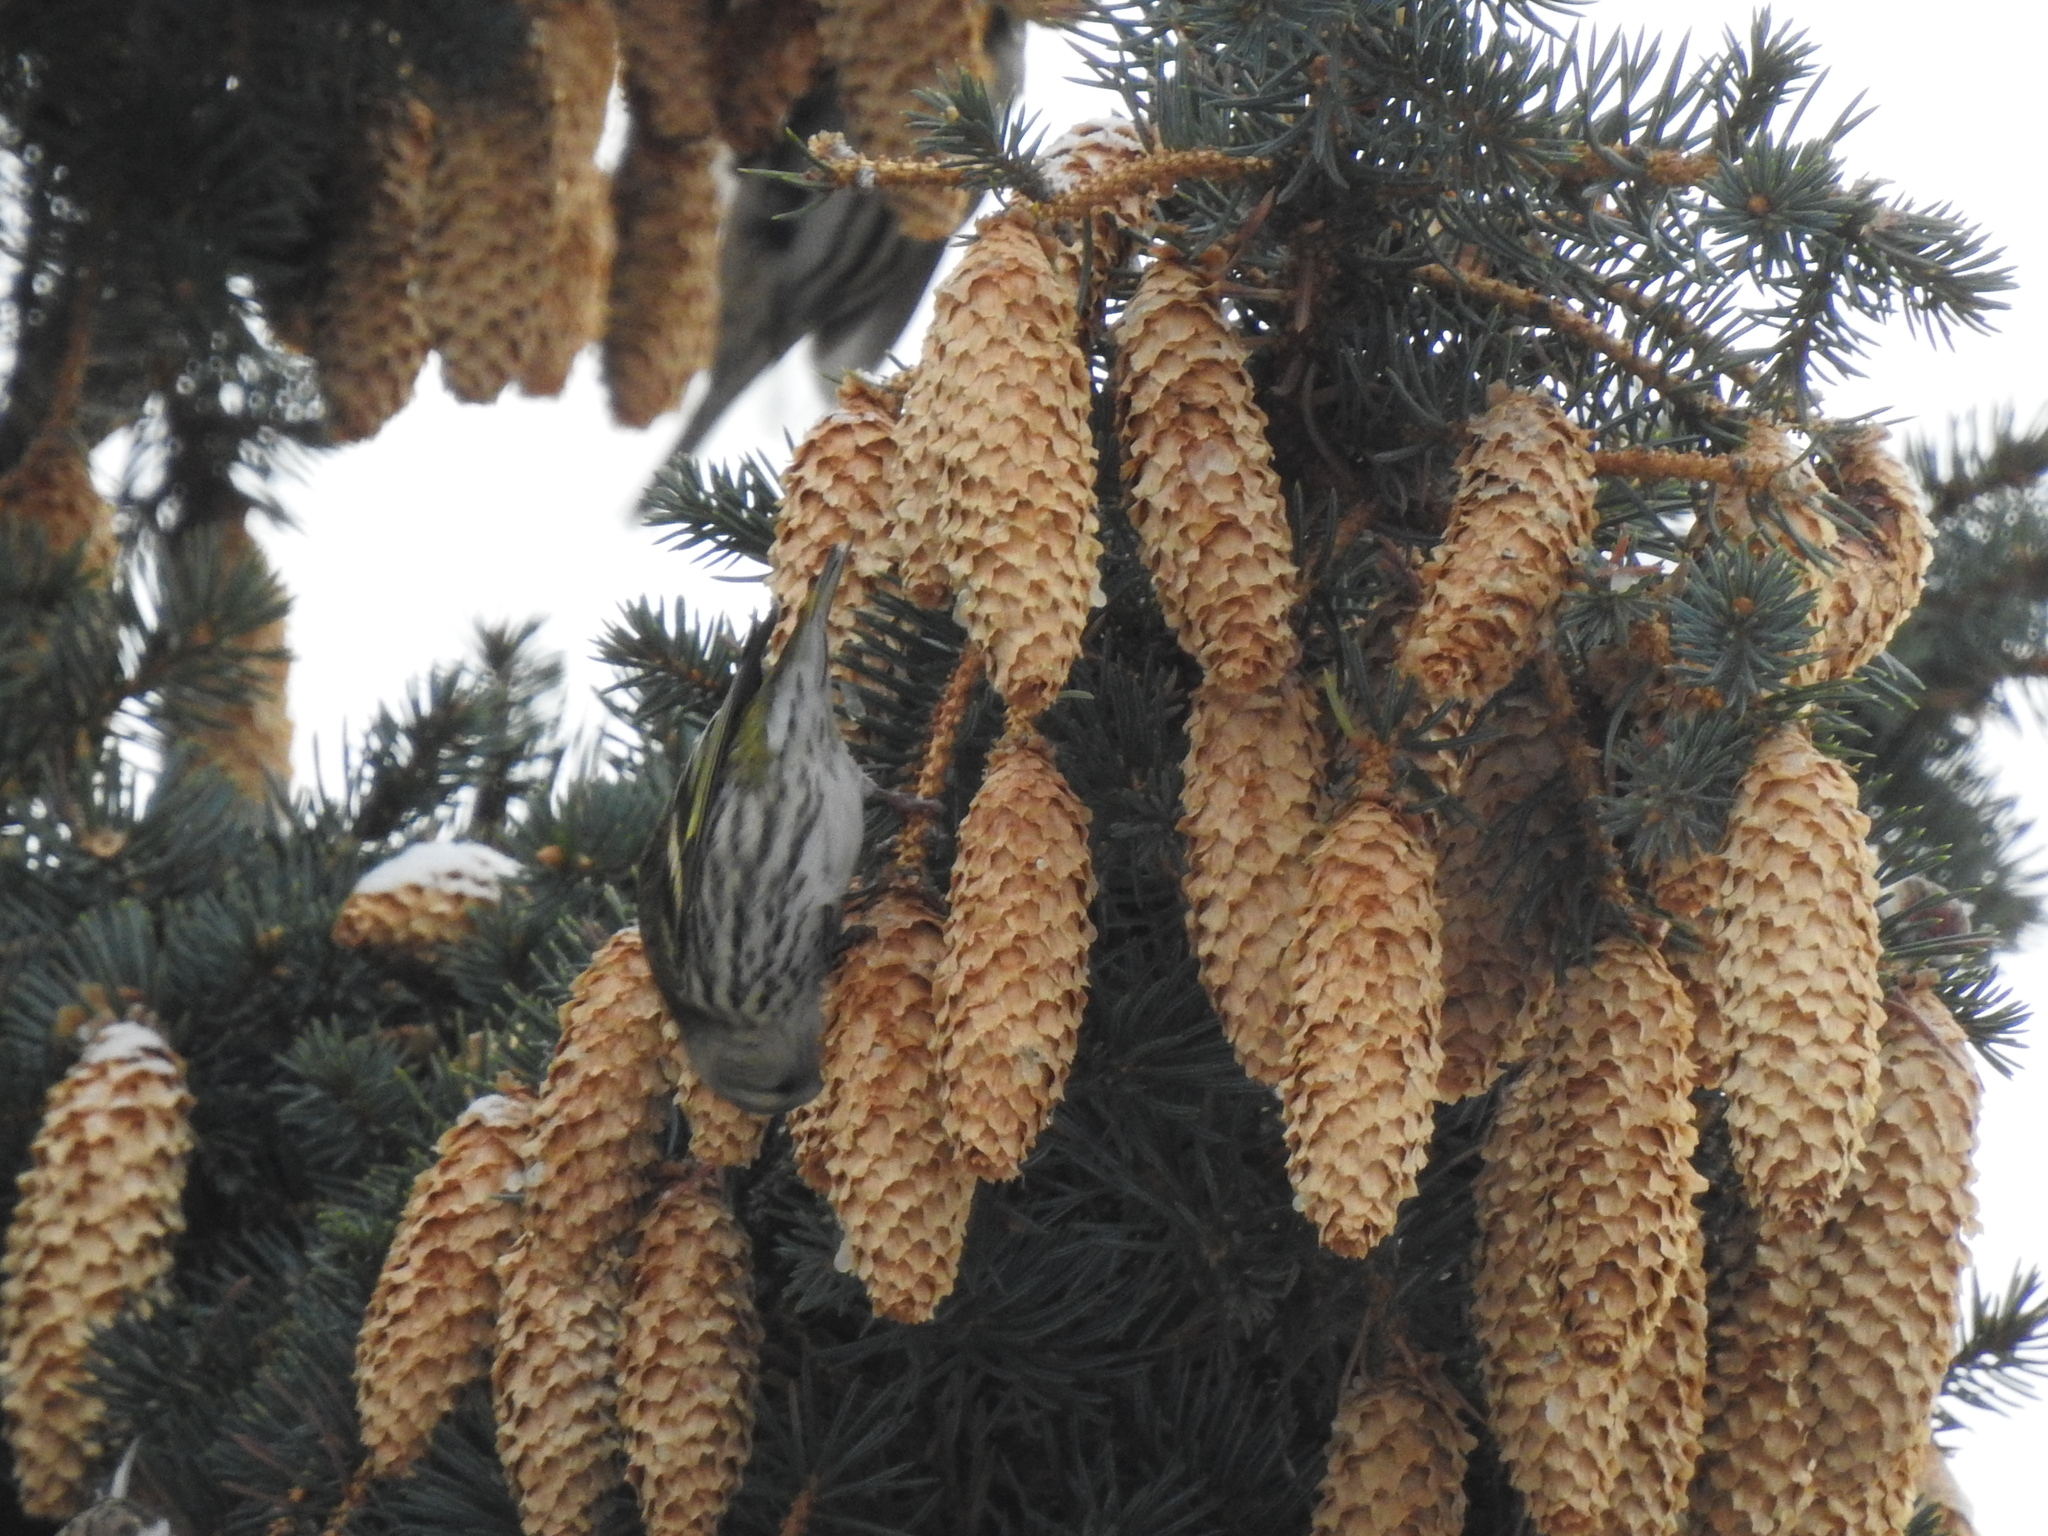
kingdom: Animalia
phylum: Chordata
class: Aves
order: Passeriformes
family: Fringillidae
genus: Spinus
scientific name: Spinus spinus
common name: Eurasian siskin
